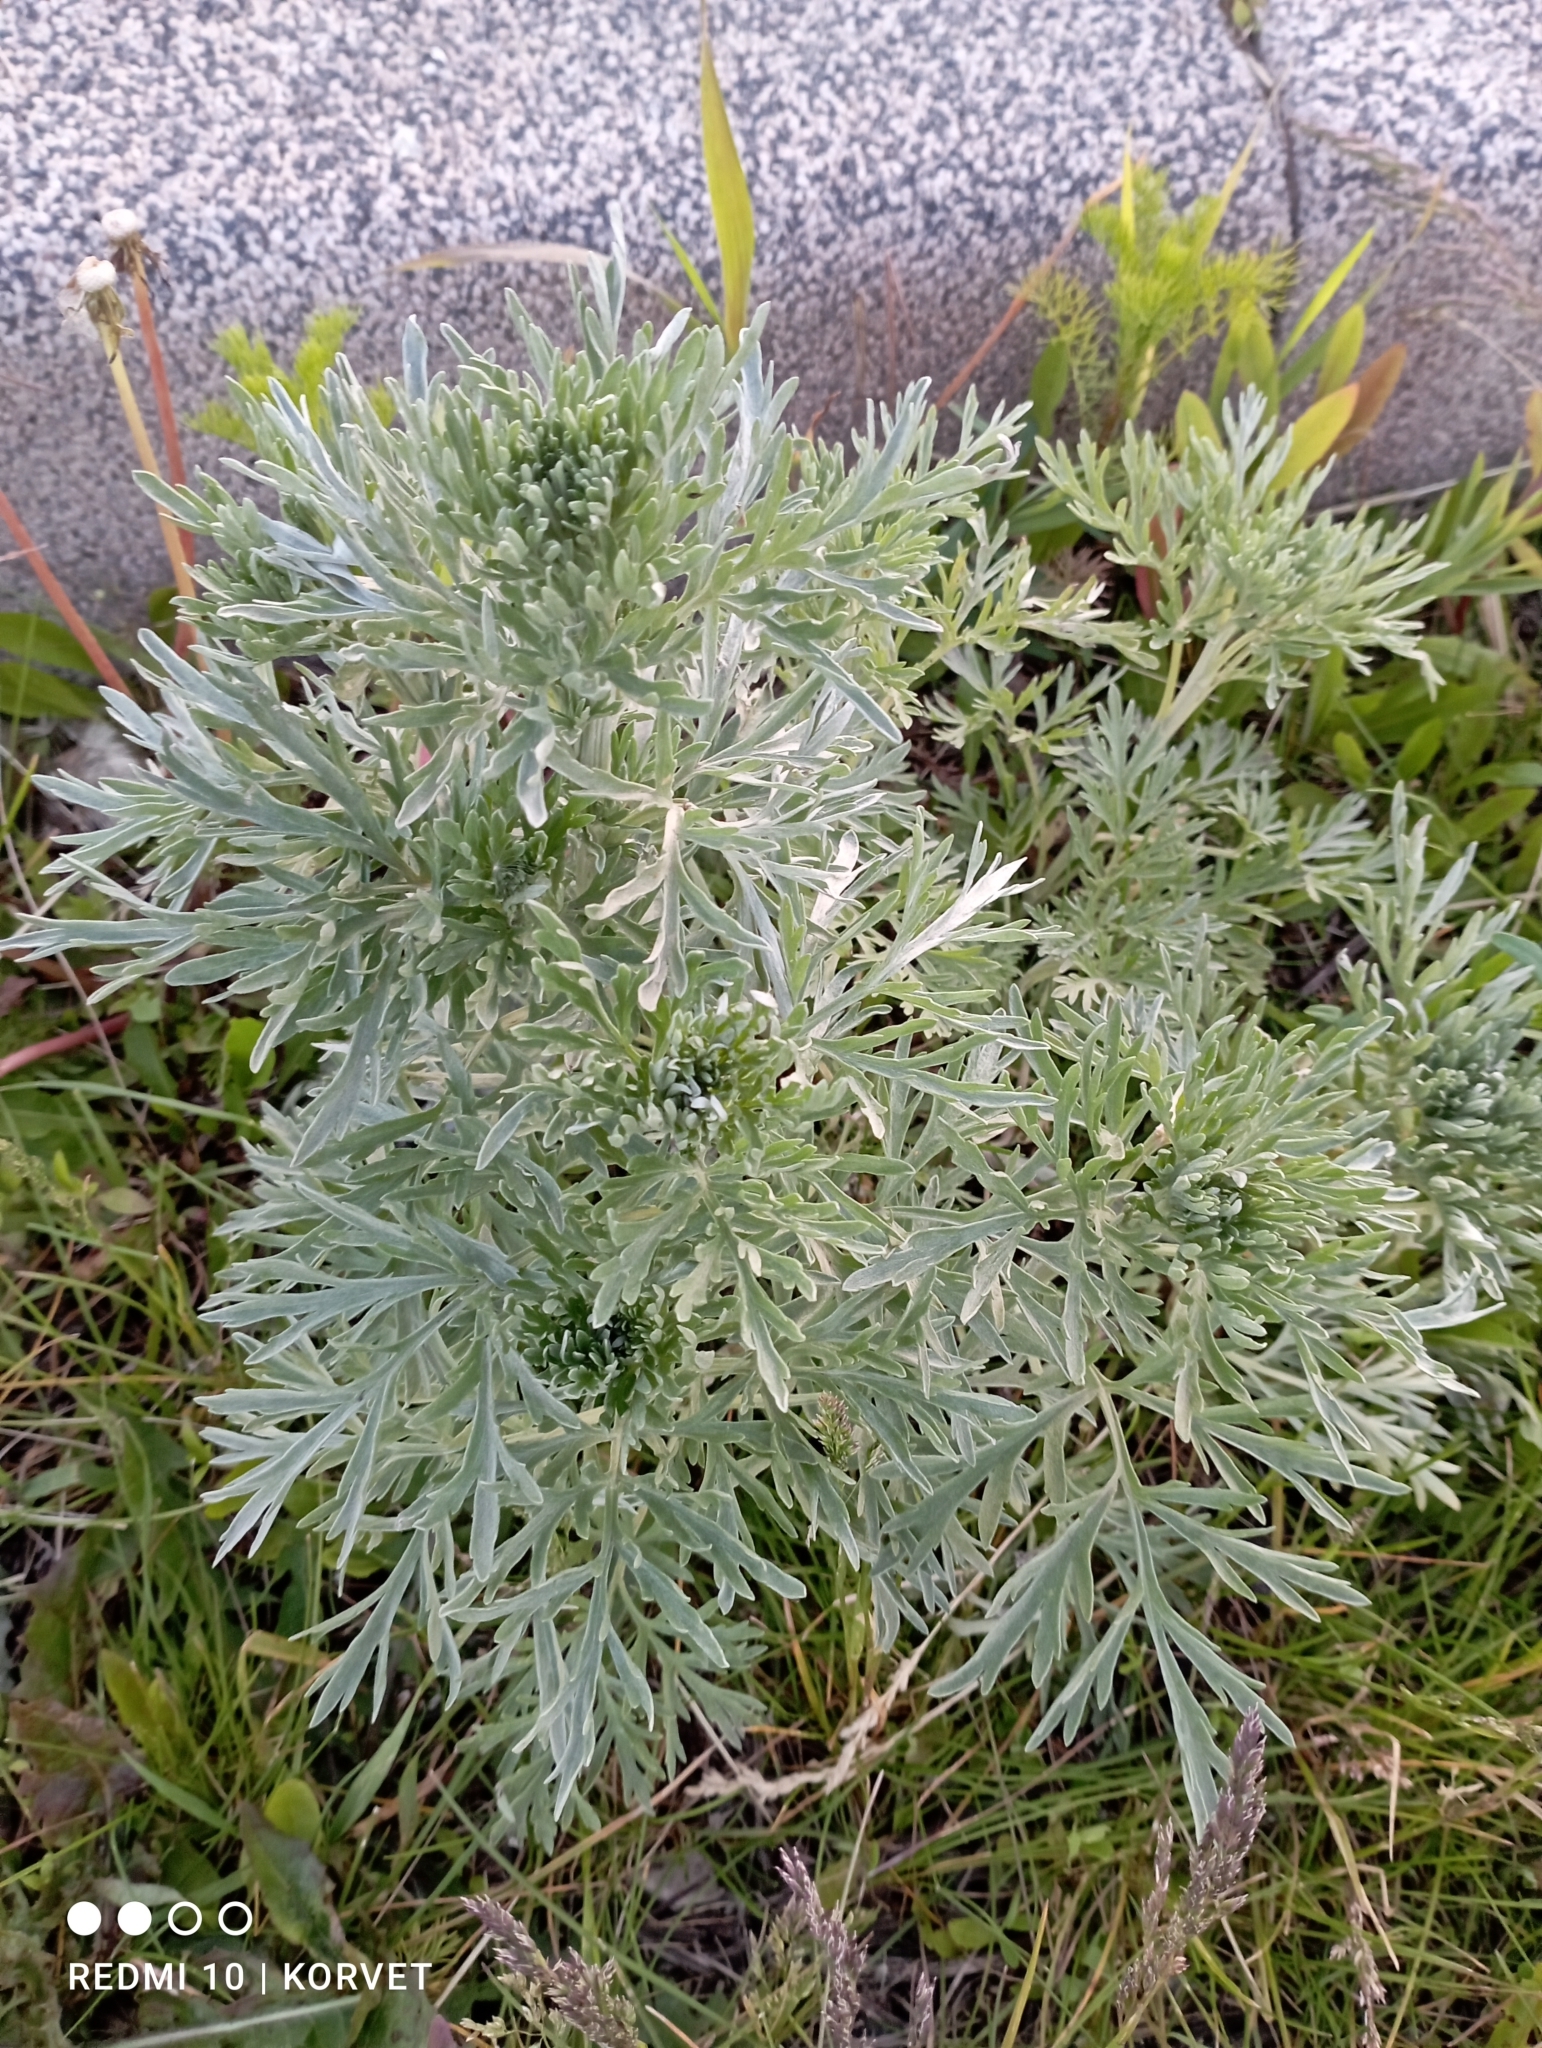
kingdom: Plantae
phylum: Tracheophyta
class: Magnoliopsida
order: Asterales
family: Asteraceae
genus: Artemisia
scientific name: Artemisia absinthium
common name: Wormwood
